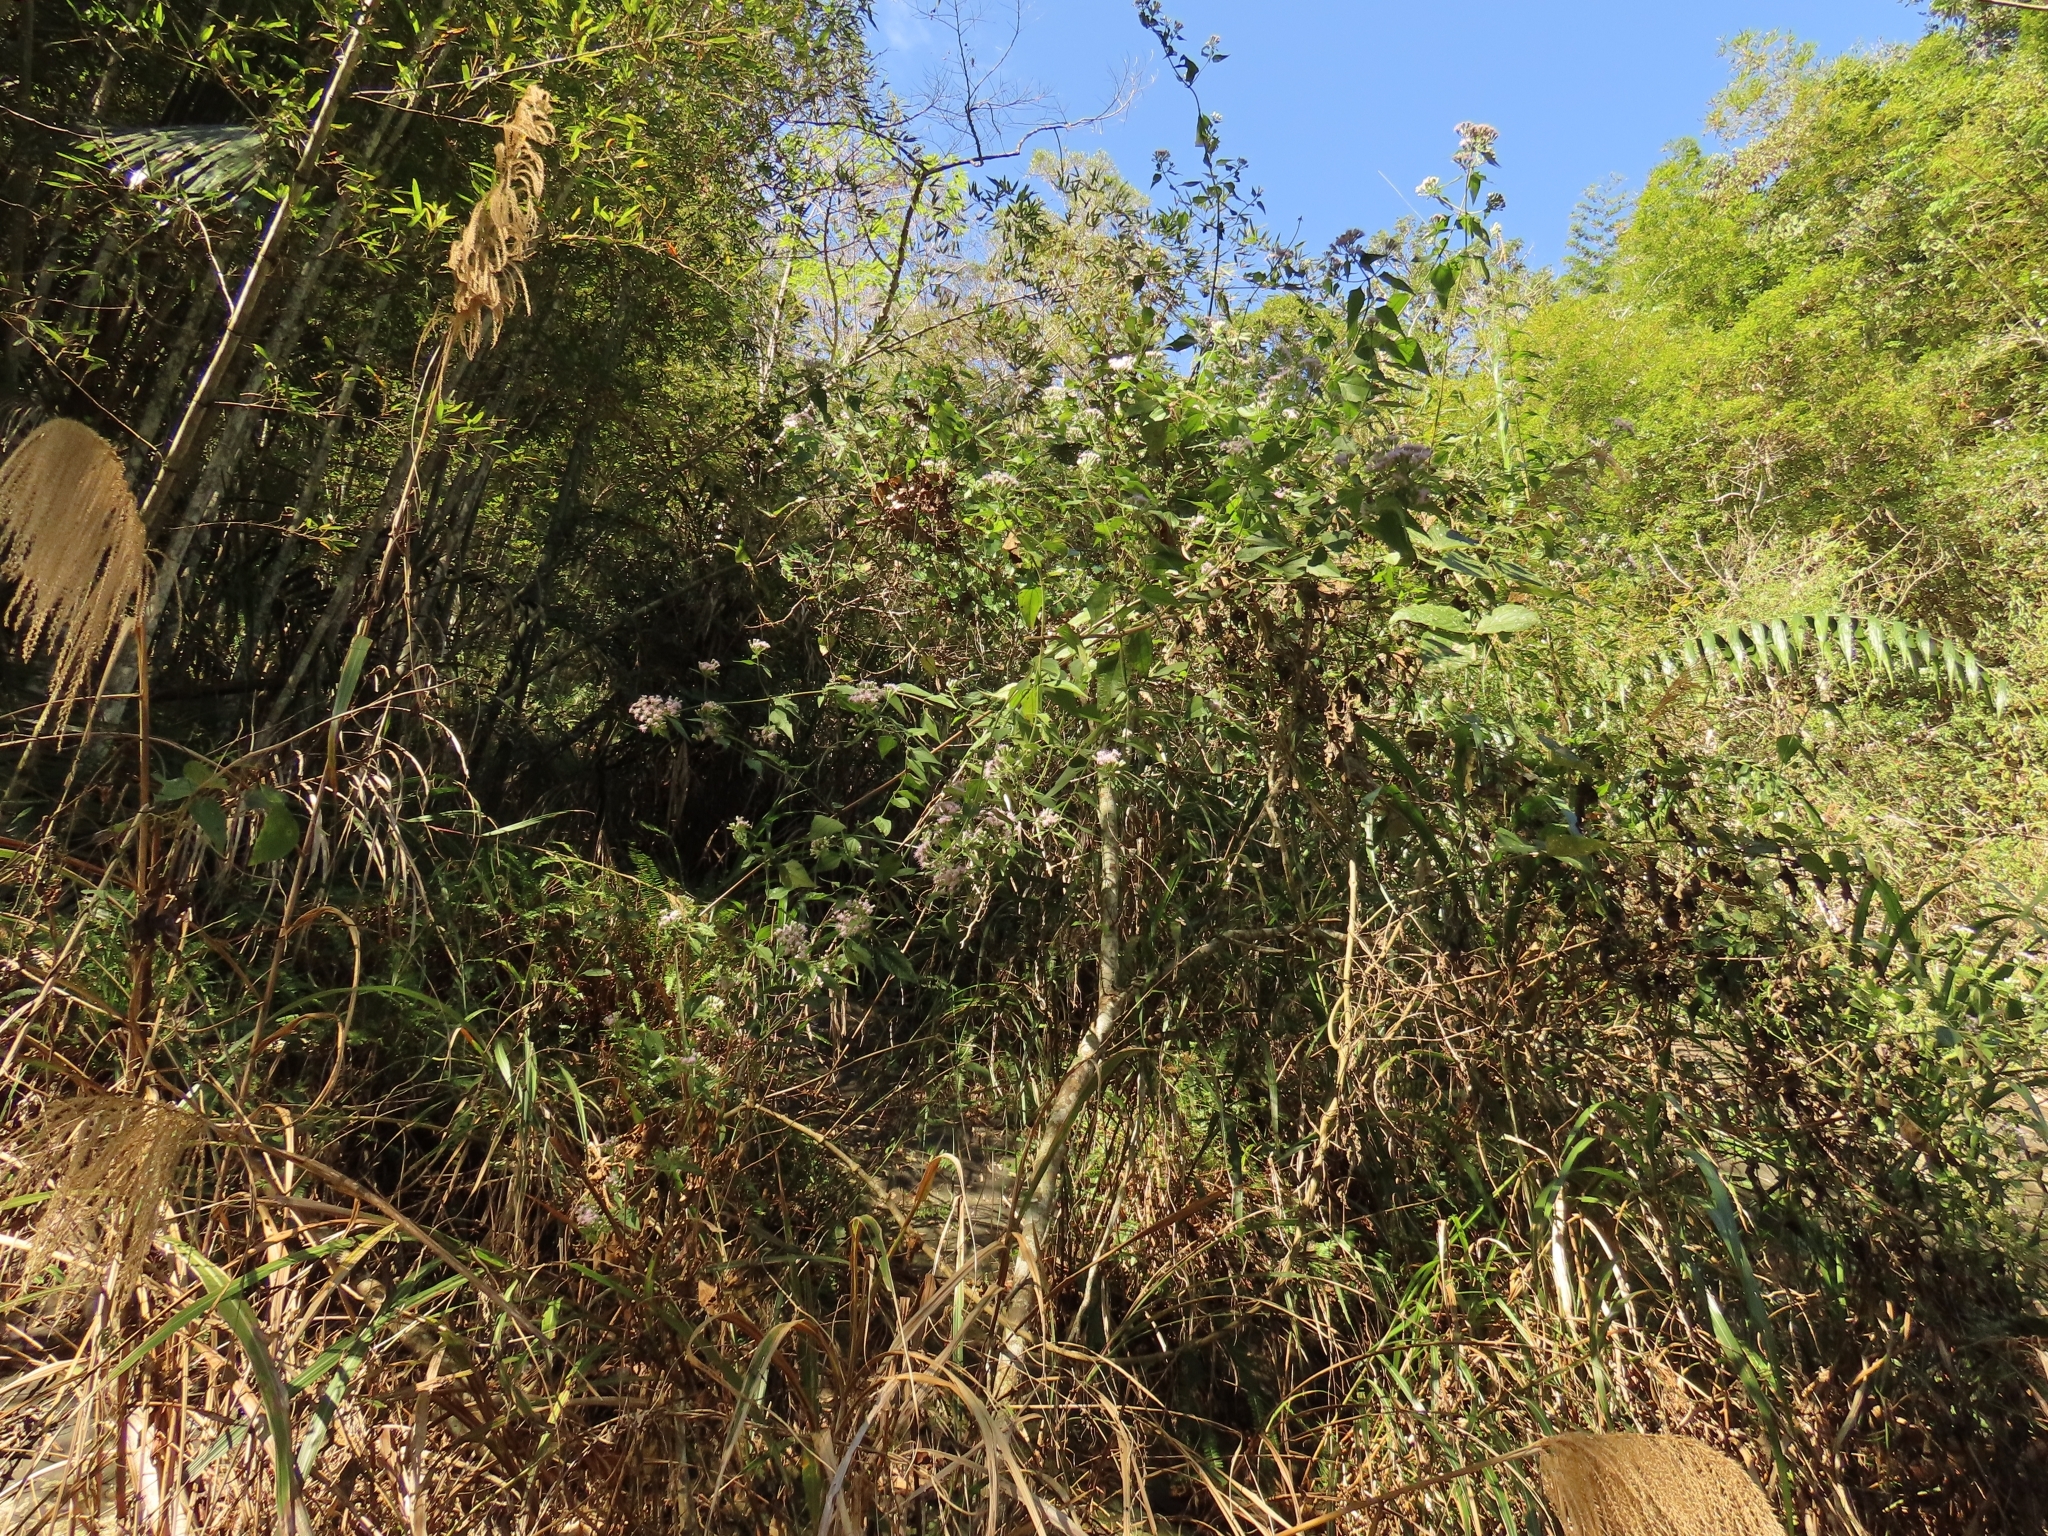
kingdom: Plantae
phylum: Tracheophyta
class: Magnoliopsida
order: Asterales
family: Asteraceae
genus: Chromolaena
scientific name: Chromolaena odorata
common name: Siamweed
